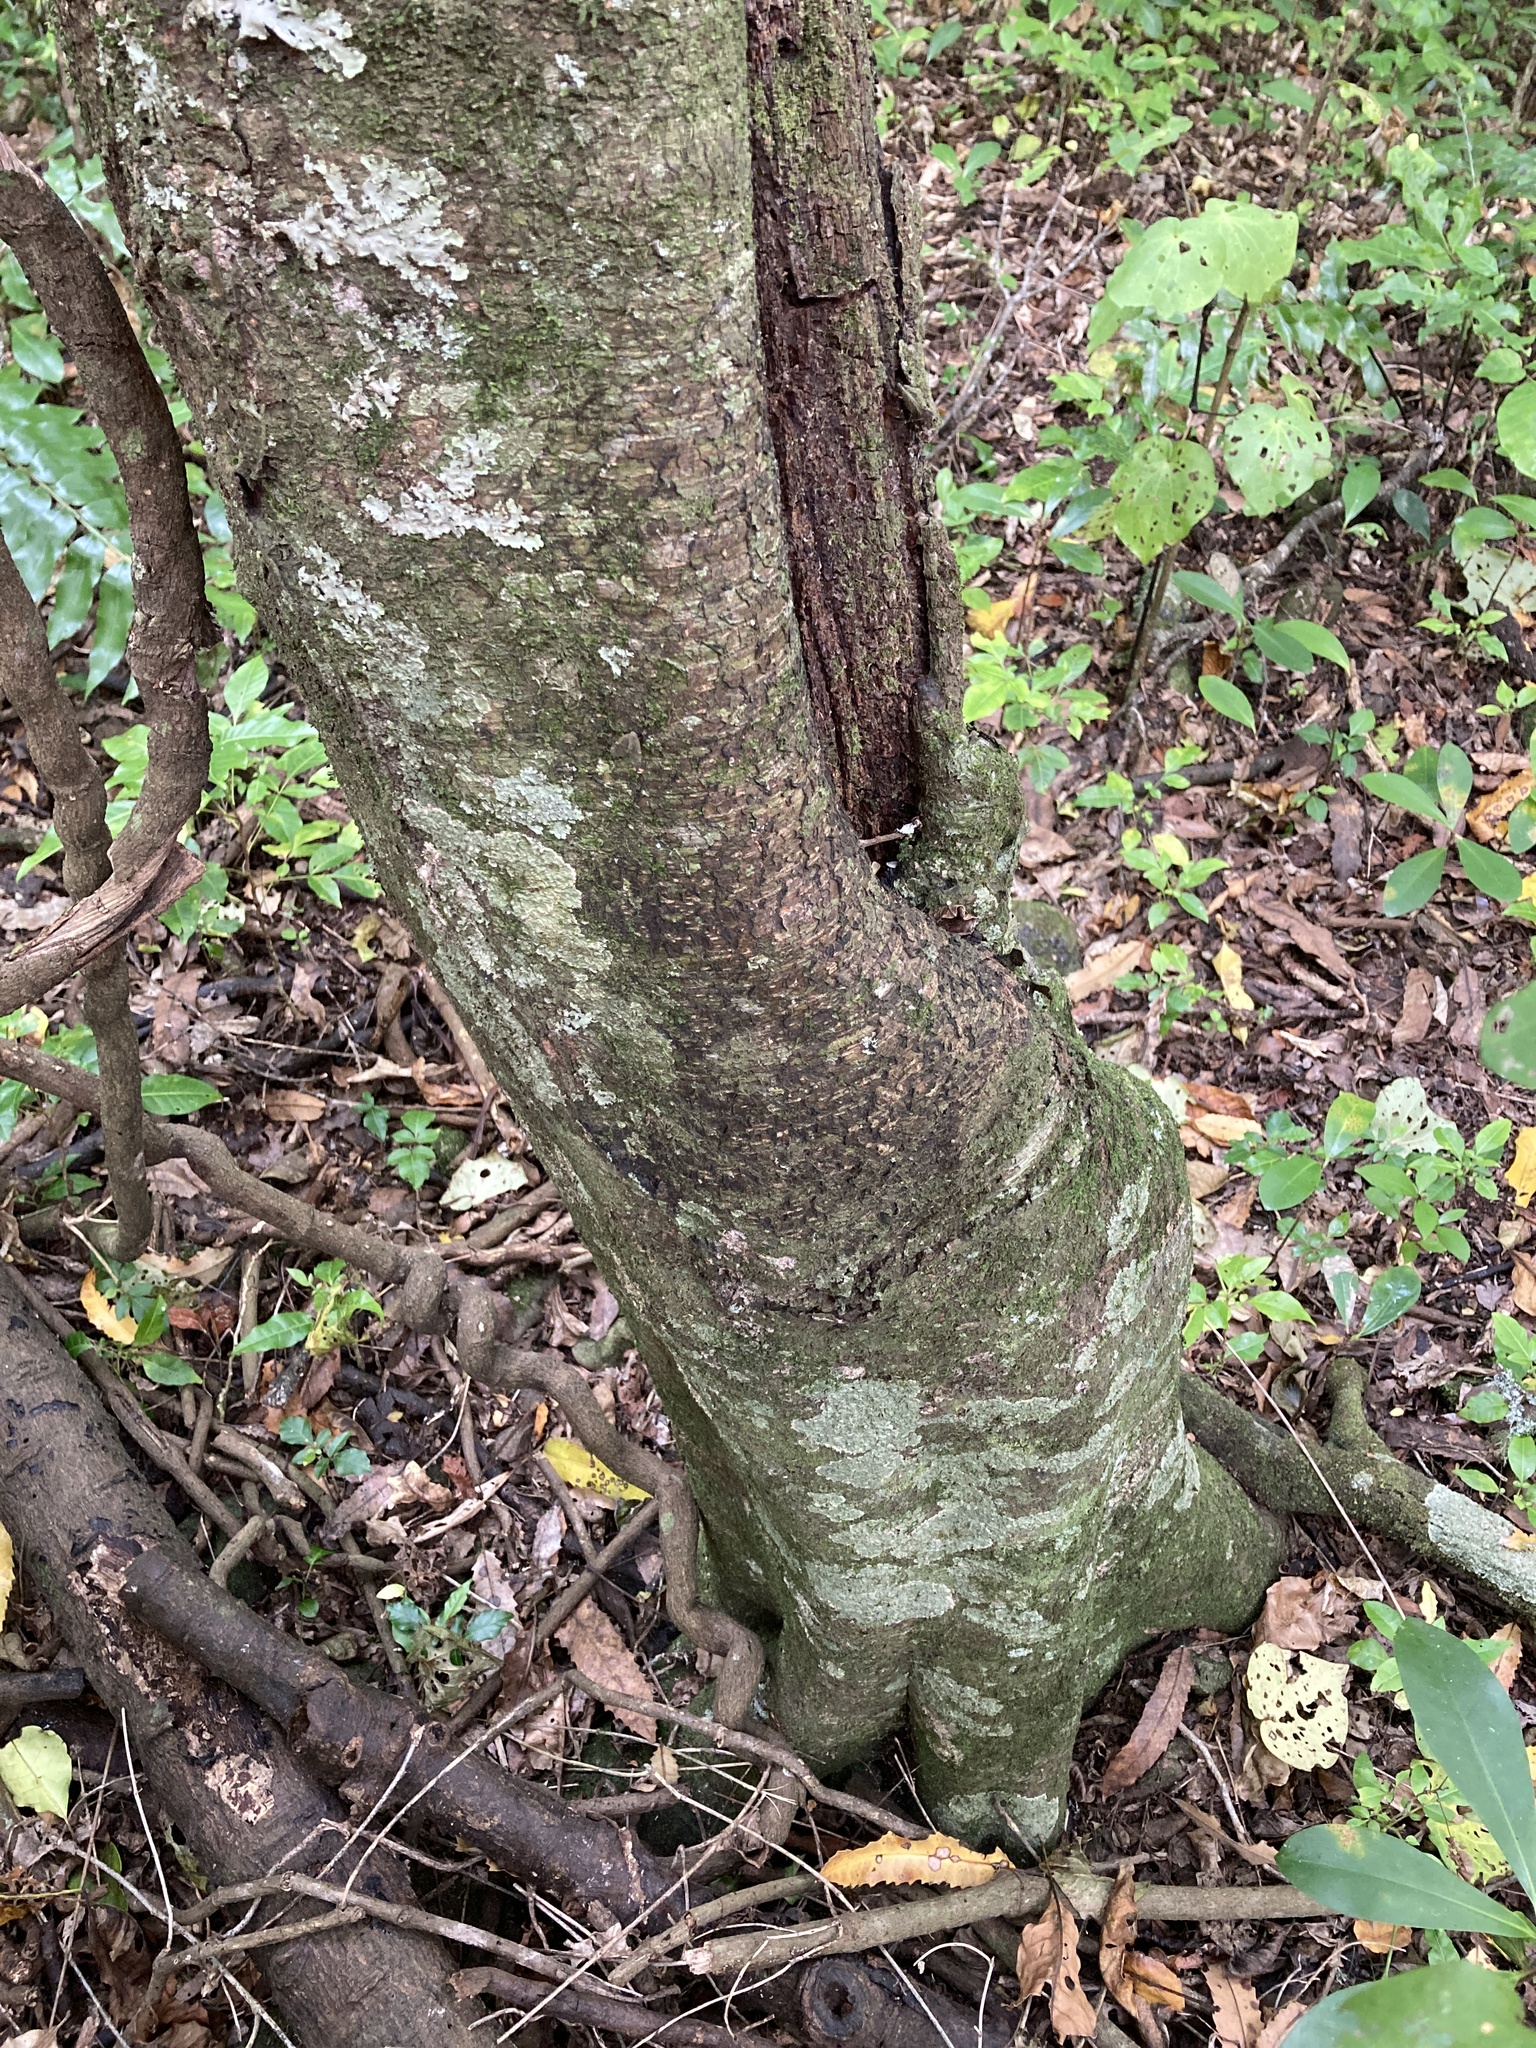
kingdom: Plantae
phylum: Tracheophyta
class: Magnoliopsida
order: Proteales
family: Proteaceae
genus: Knightia
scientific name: Knightia excelsa
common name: New zealand-honeysuckle
